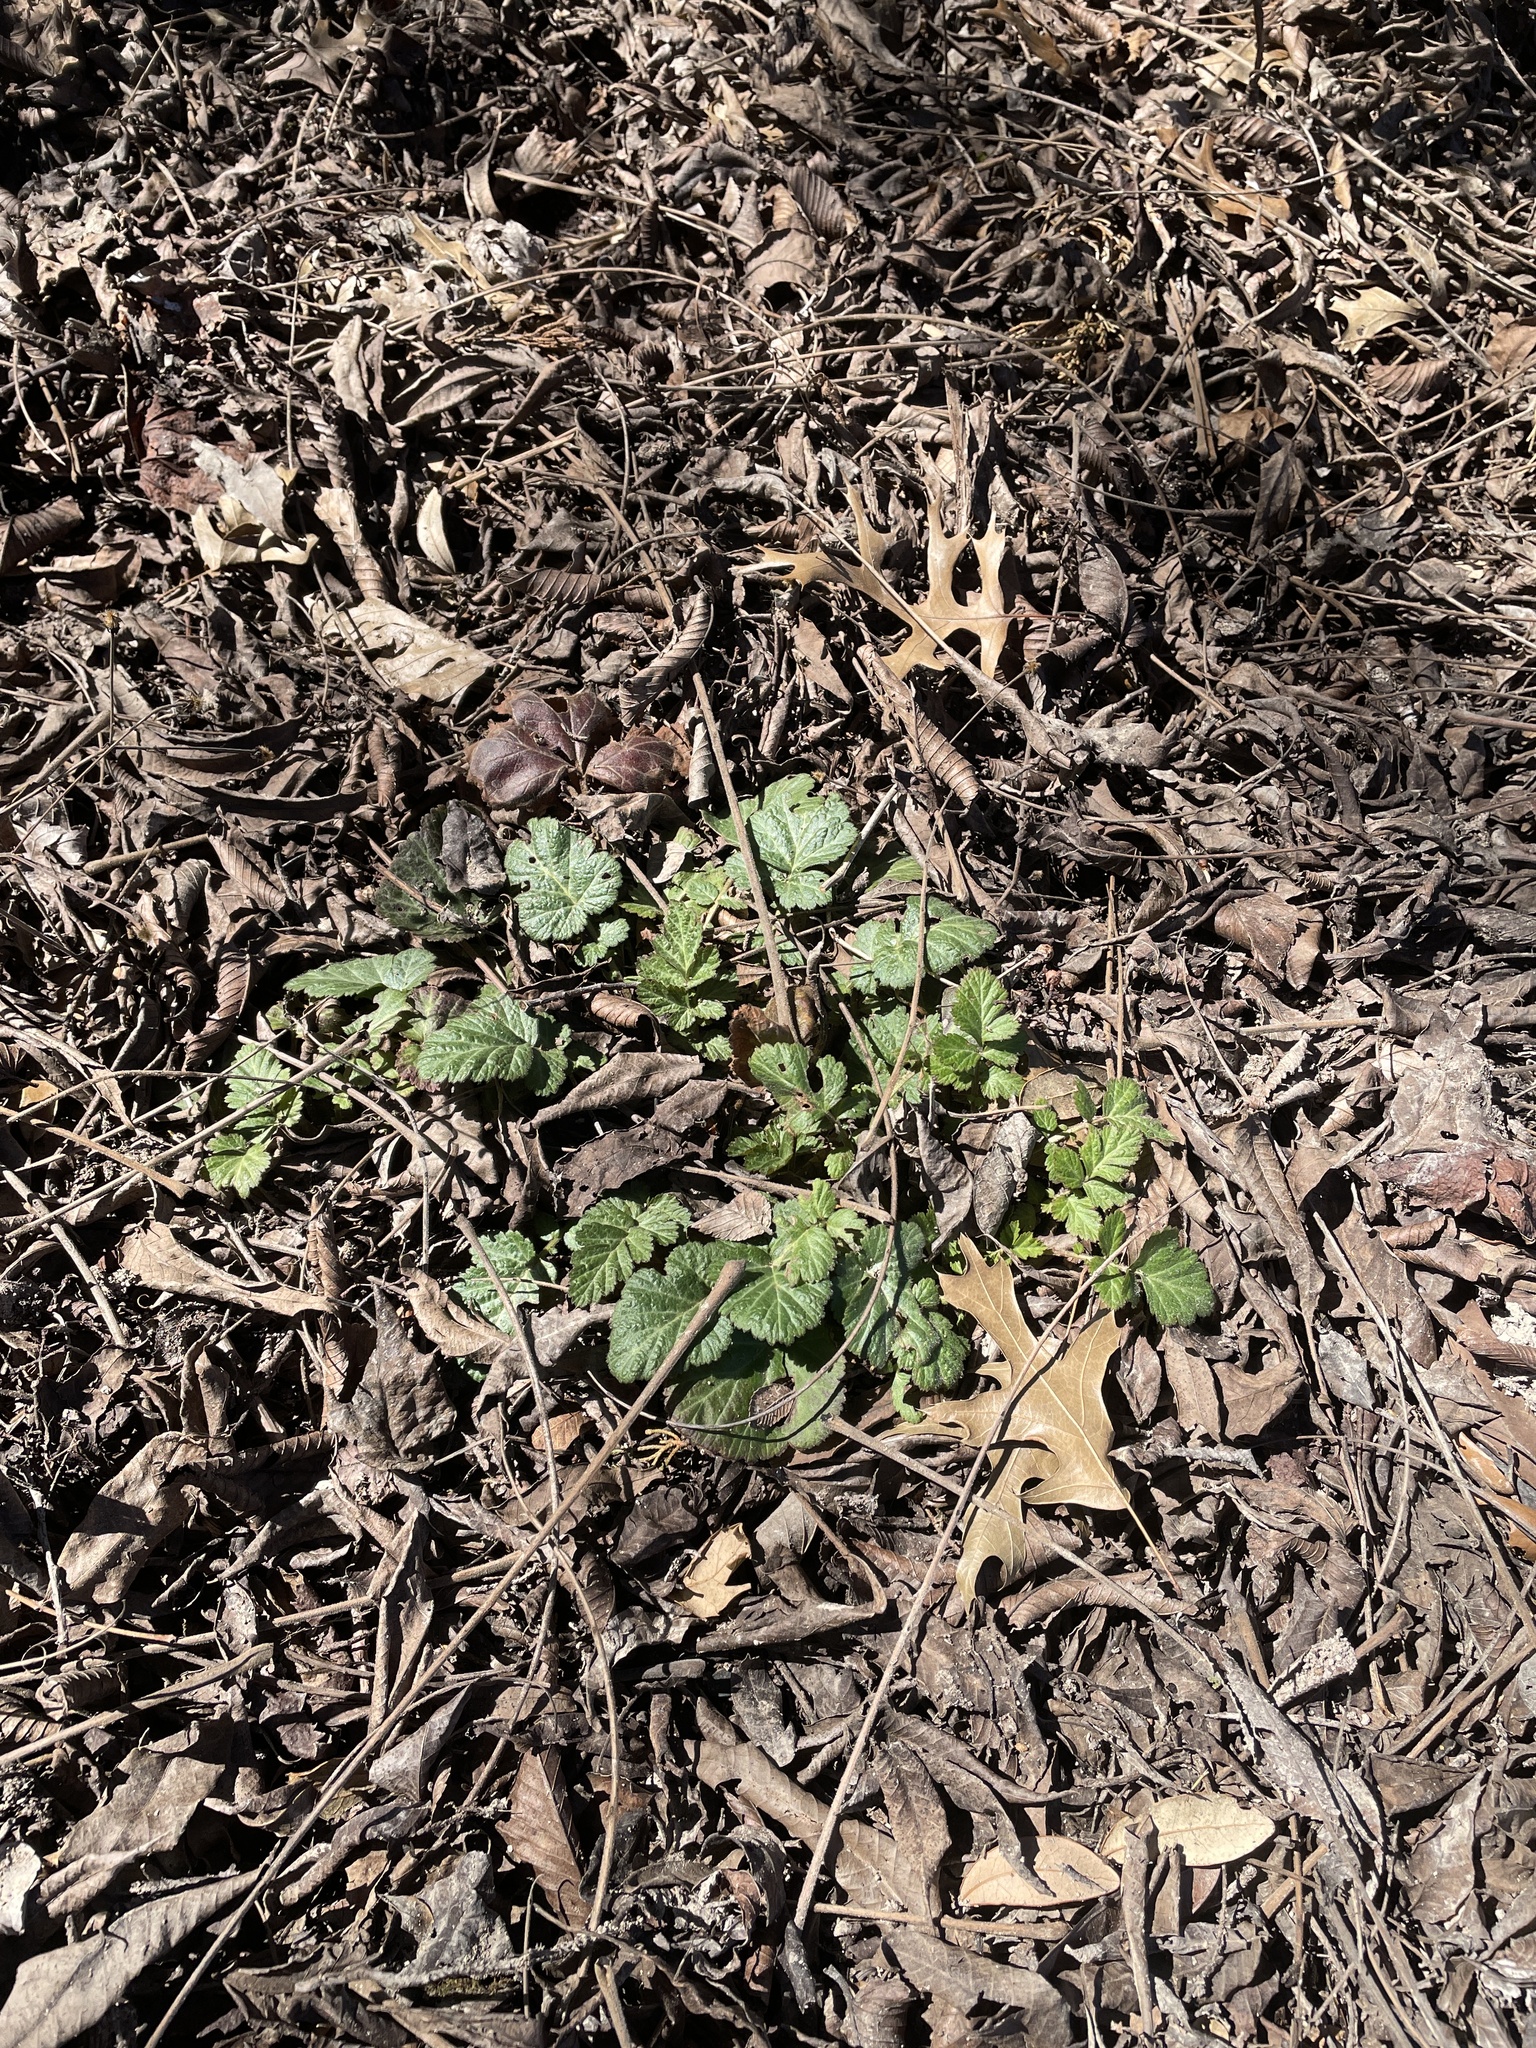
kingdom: Plantae
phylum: Tracheophyta
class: Magnoliopsida
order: Rosales
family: Rosaceae
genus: Geum
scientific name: Geum canadense
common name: White avens
